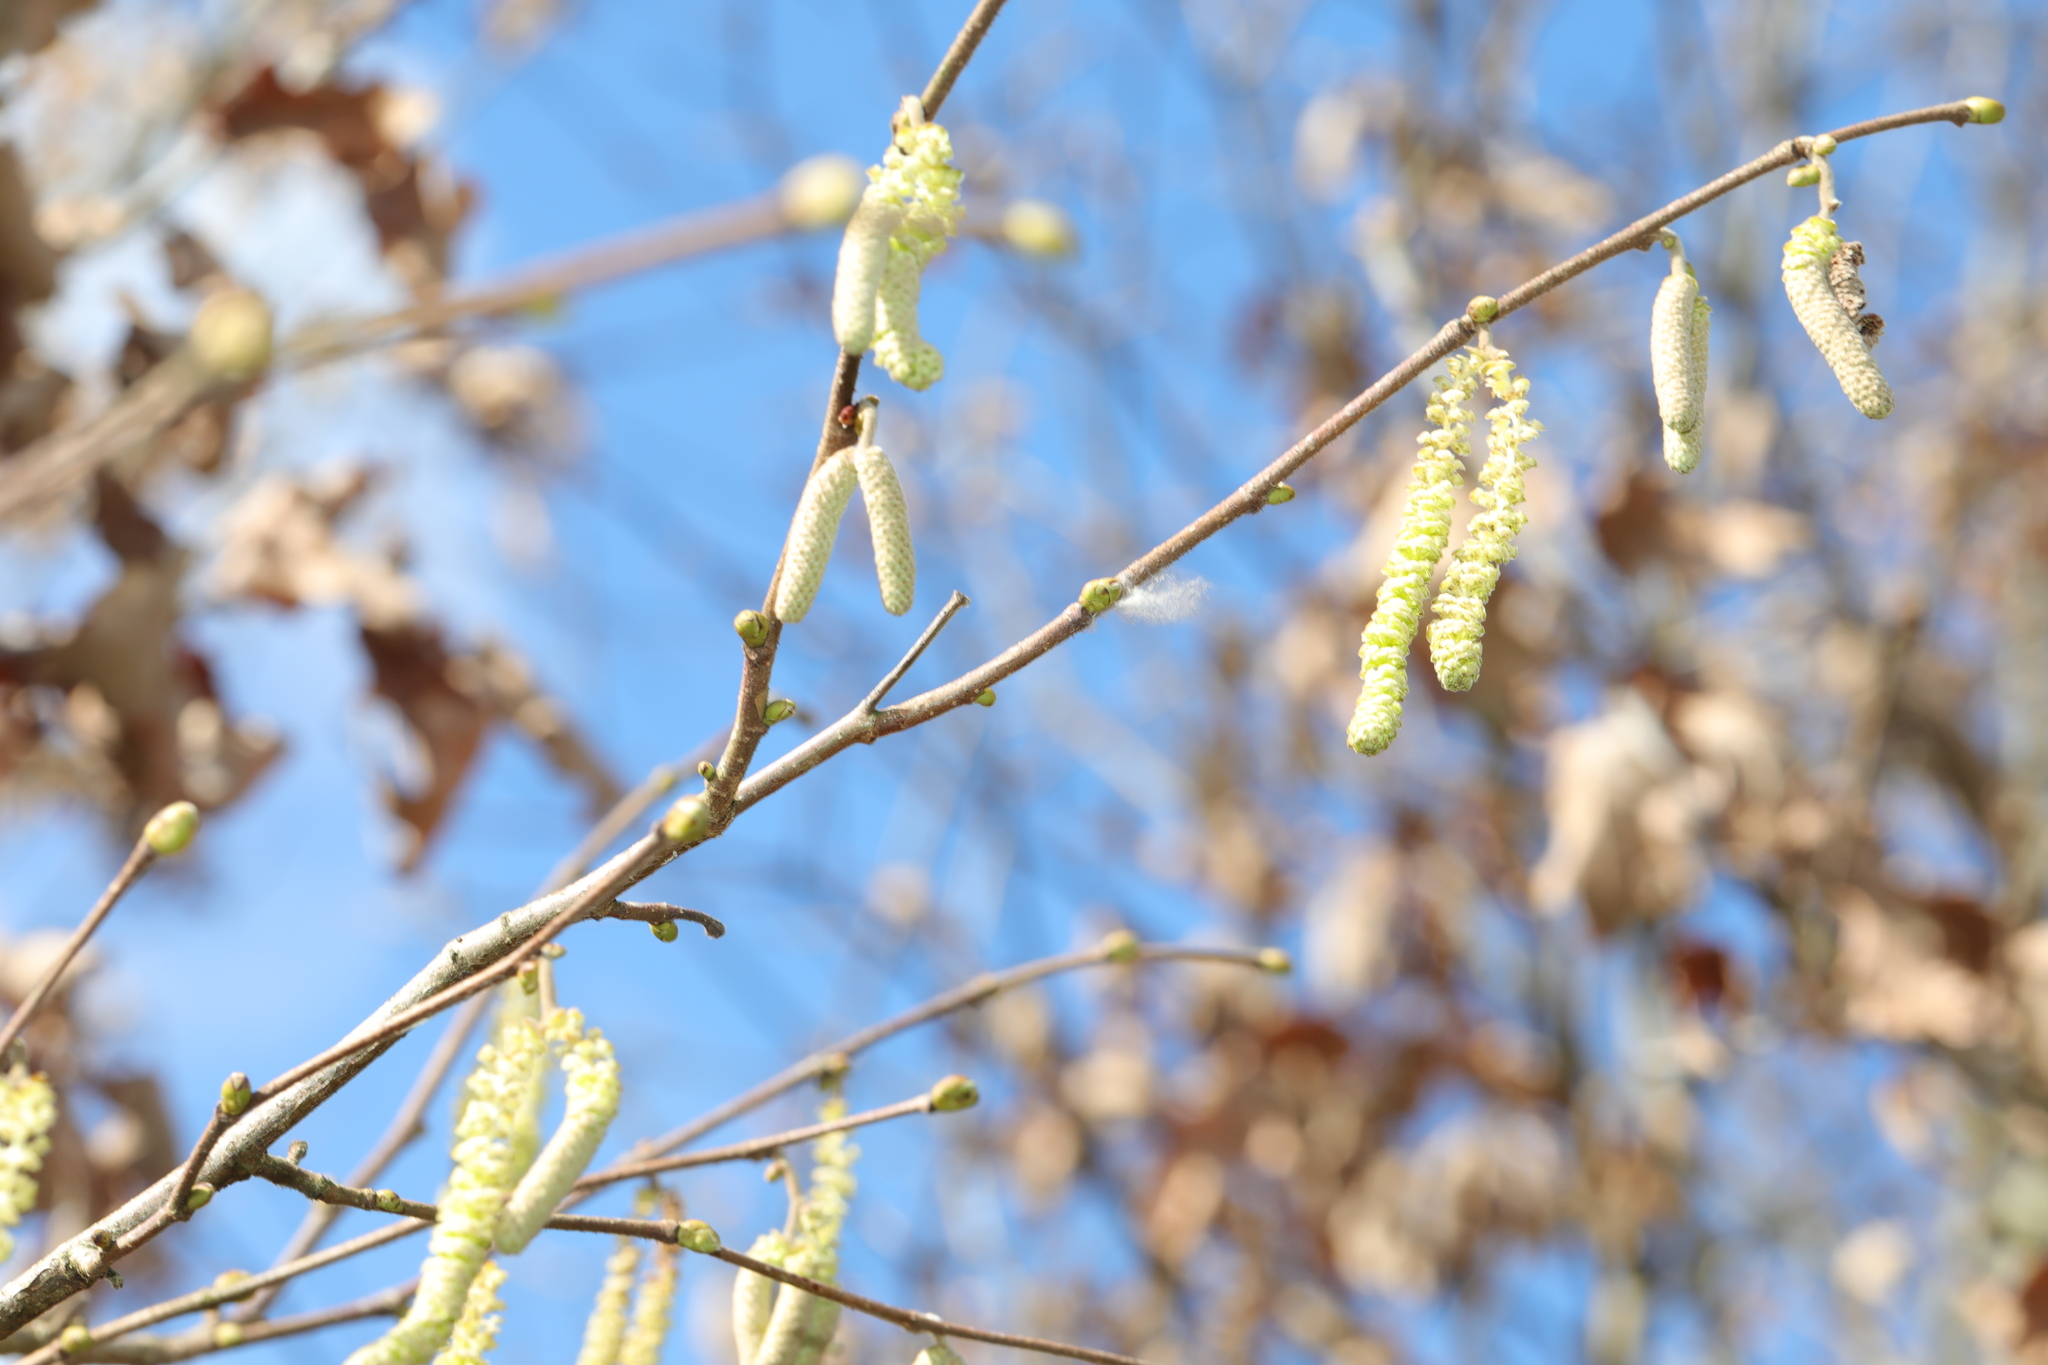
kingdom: Plantae
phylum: Tracheophyta
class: Magnoliopsida
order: Fagales
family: Betulaceae
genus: Corylus
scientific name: Corylus avellana
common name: European hazel
